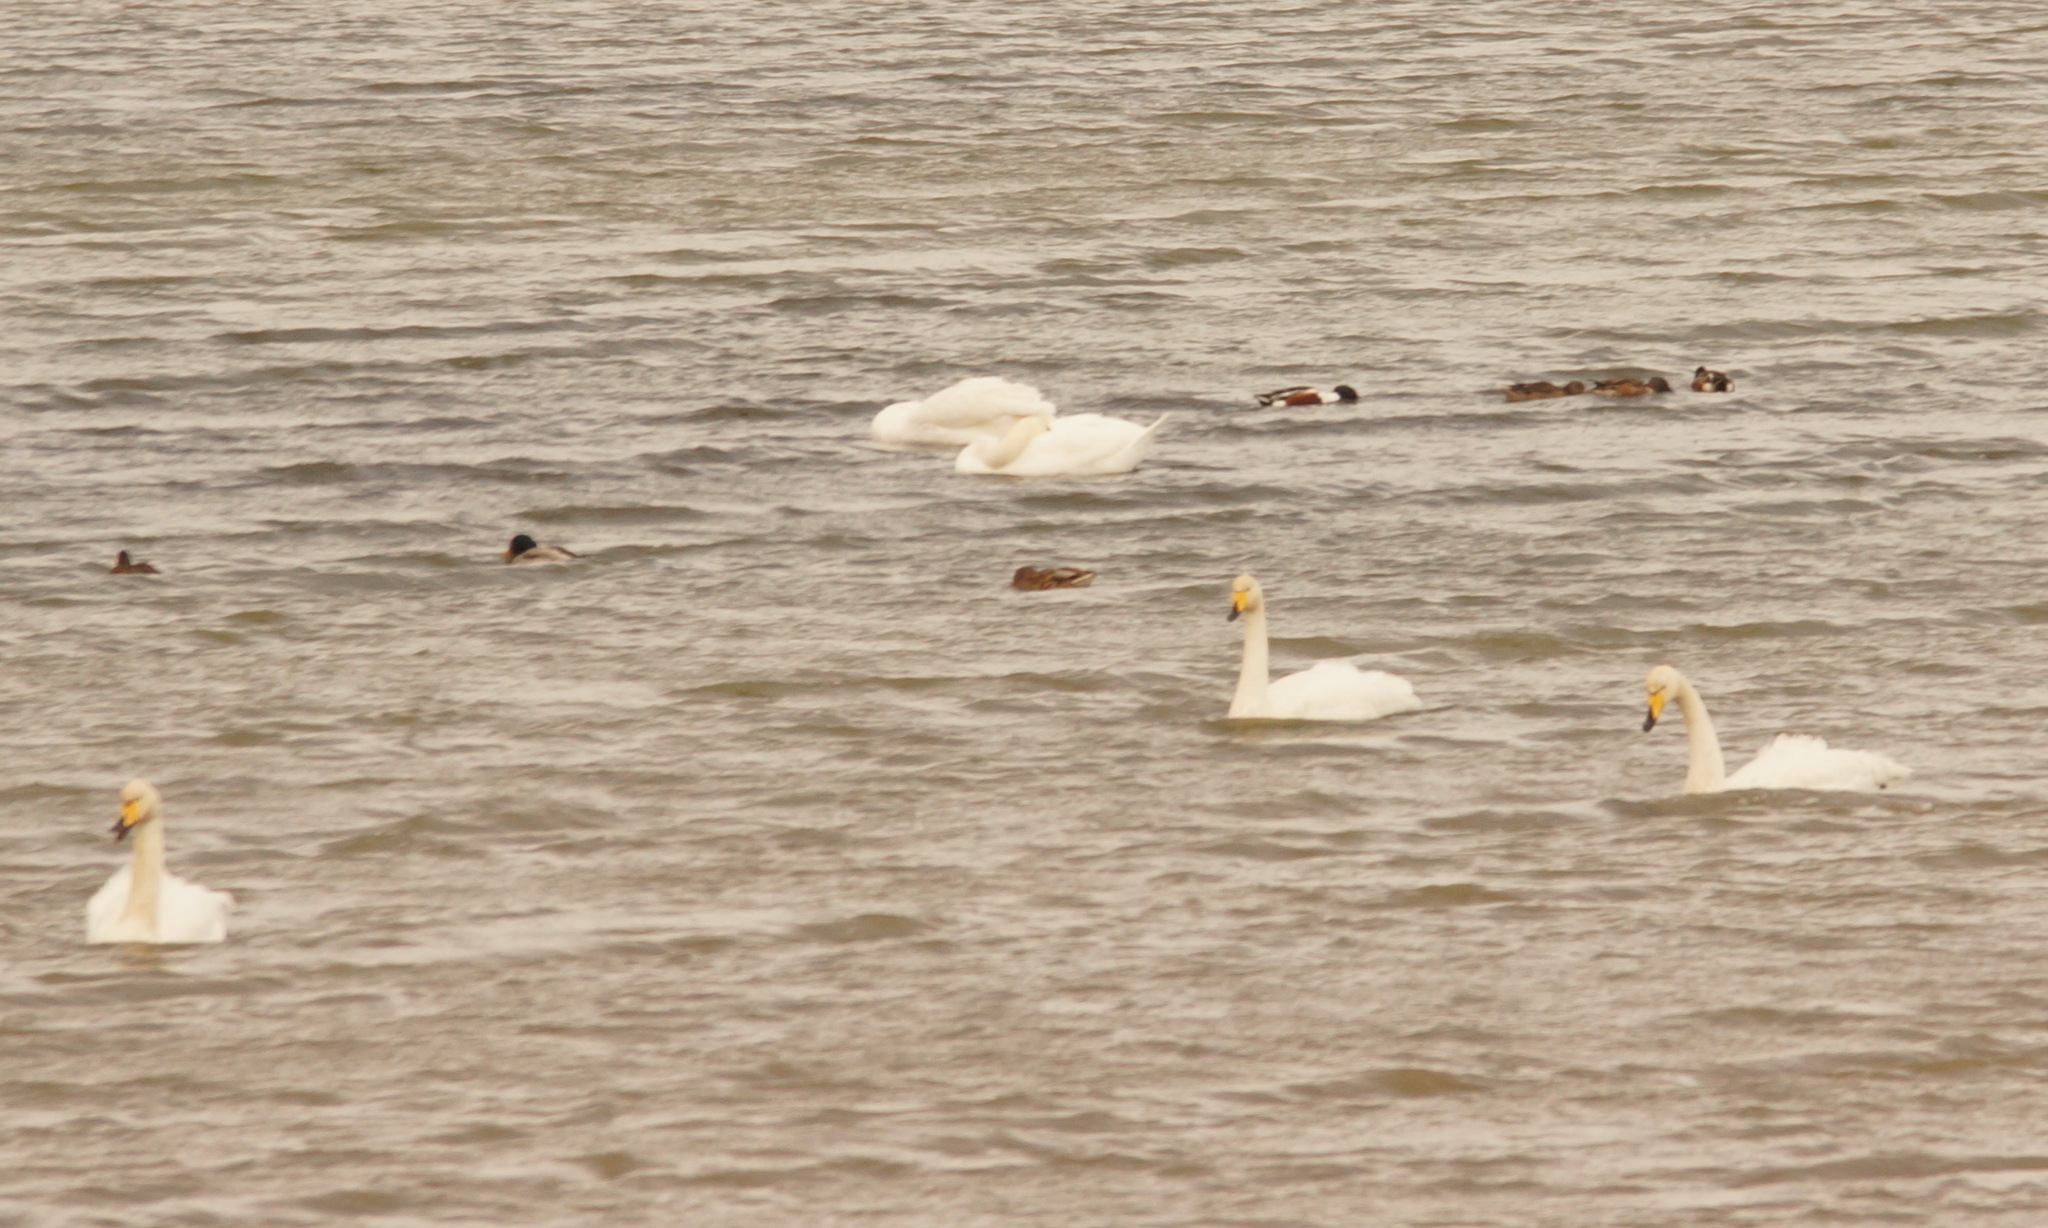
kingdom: Animalia
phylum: Chordata
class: Aves
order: Anseriformes
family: Anatidae
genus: Cygnus
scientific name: Cygnus cygnus
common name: Whooper swan
